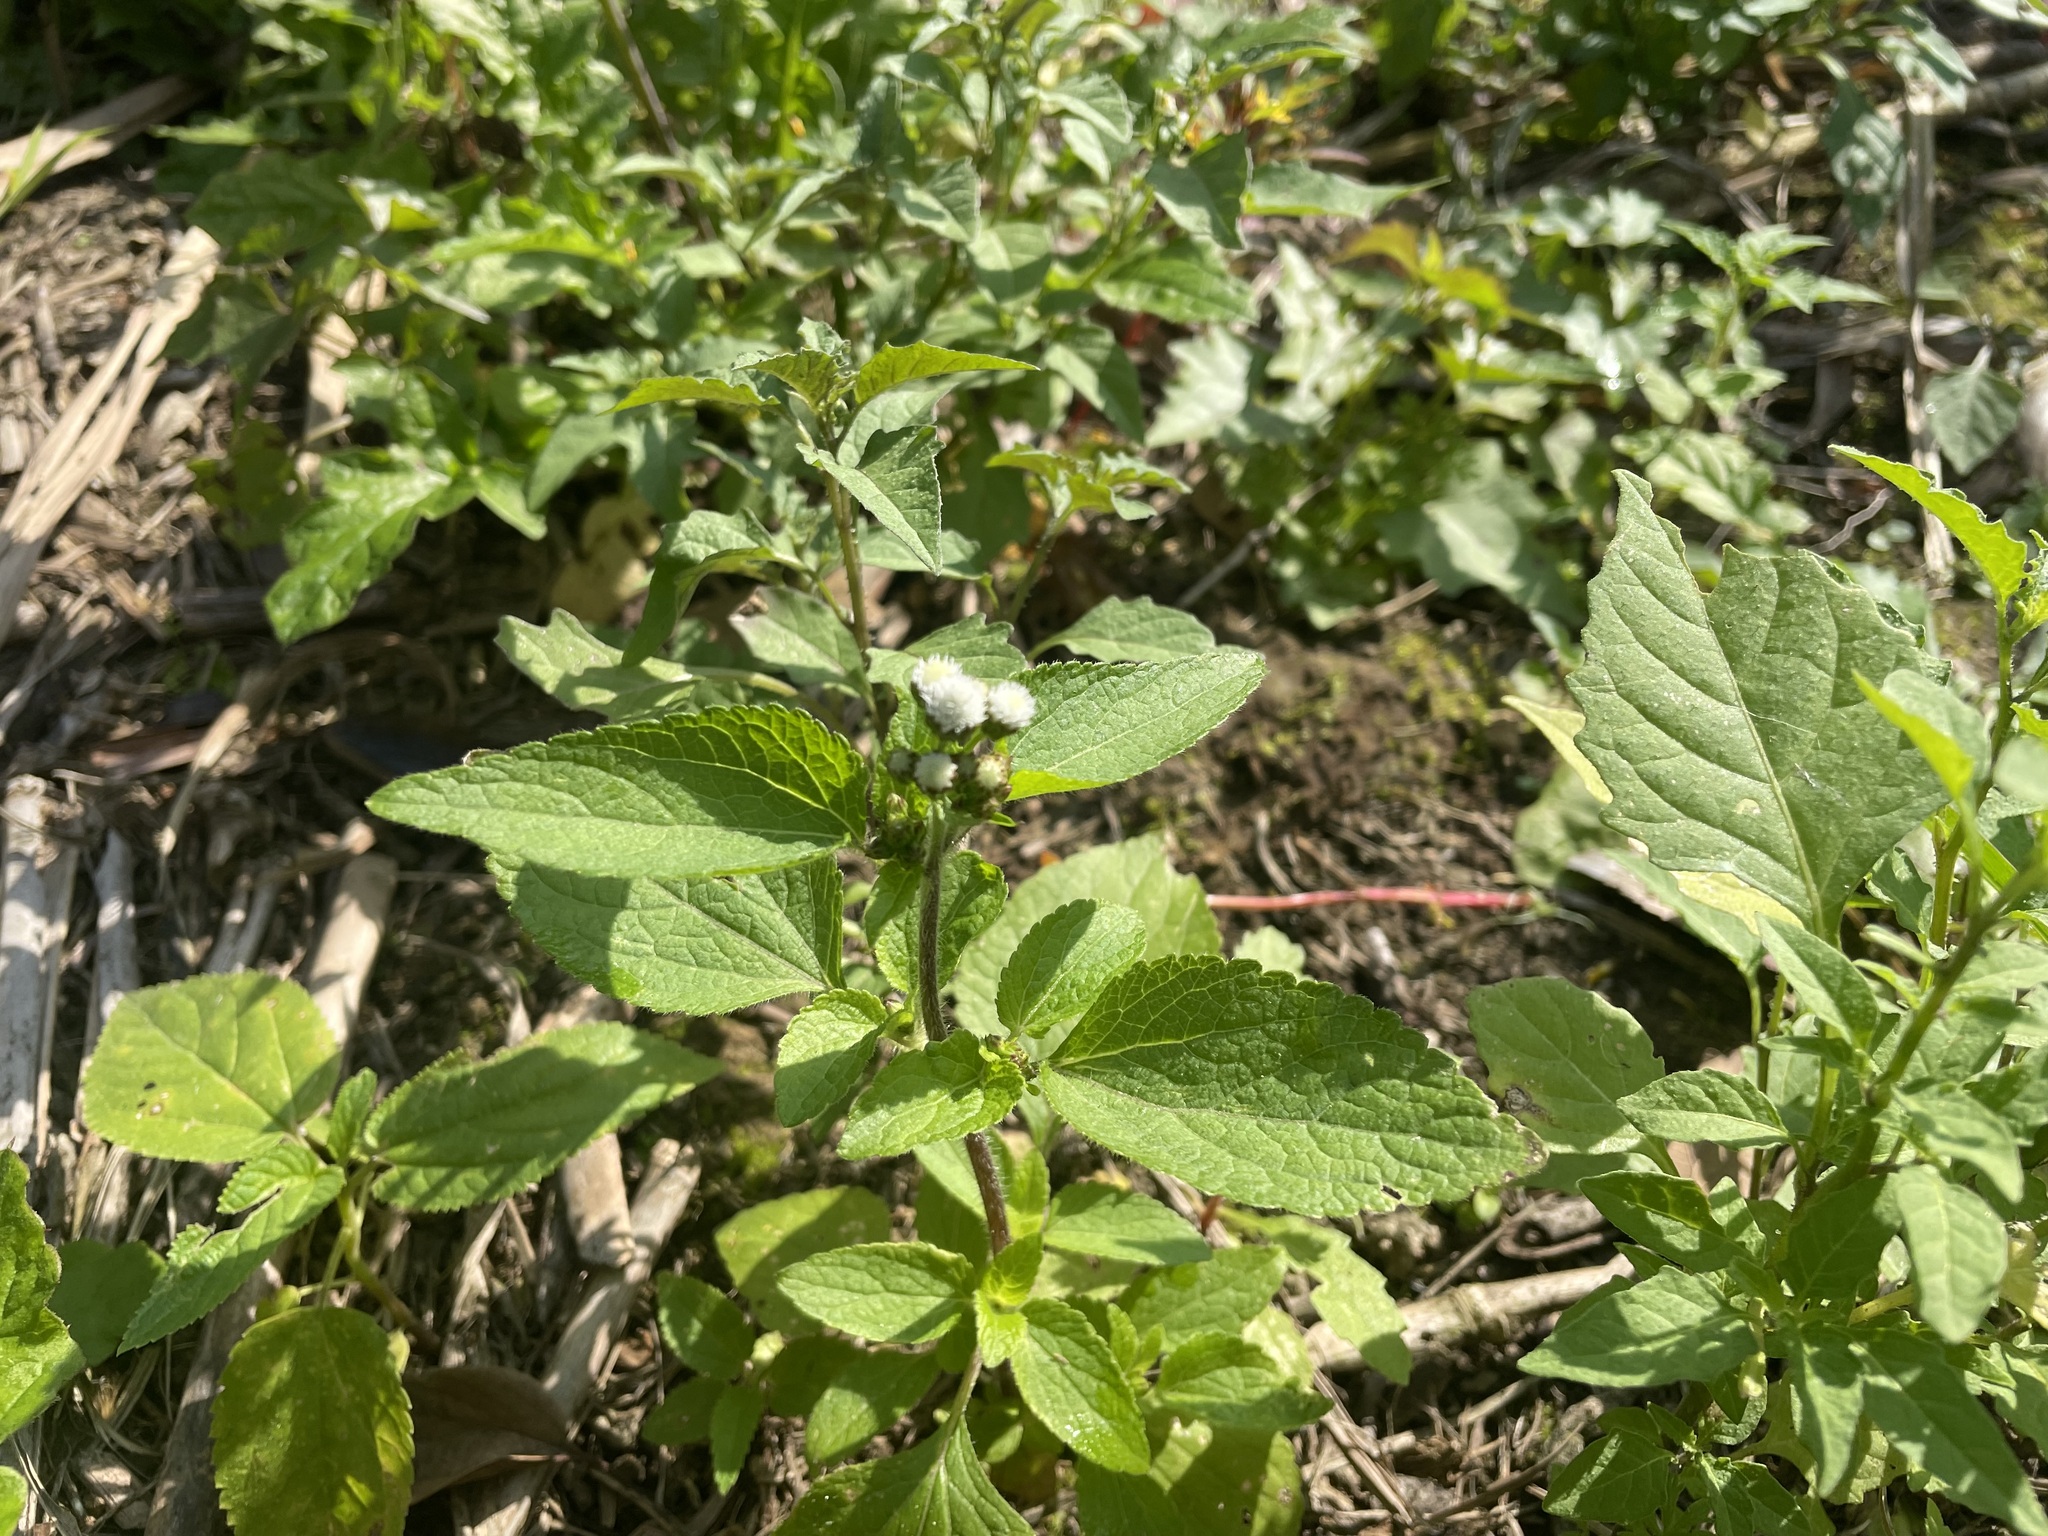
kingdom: Plantae
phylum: Tracheophyta
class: Magnoliopsida
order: Asterales
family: Asteraceae
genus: Ageratum
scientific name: Ageratum conyzoides
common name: Tropical whiteweed
